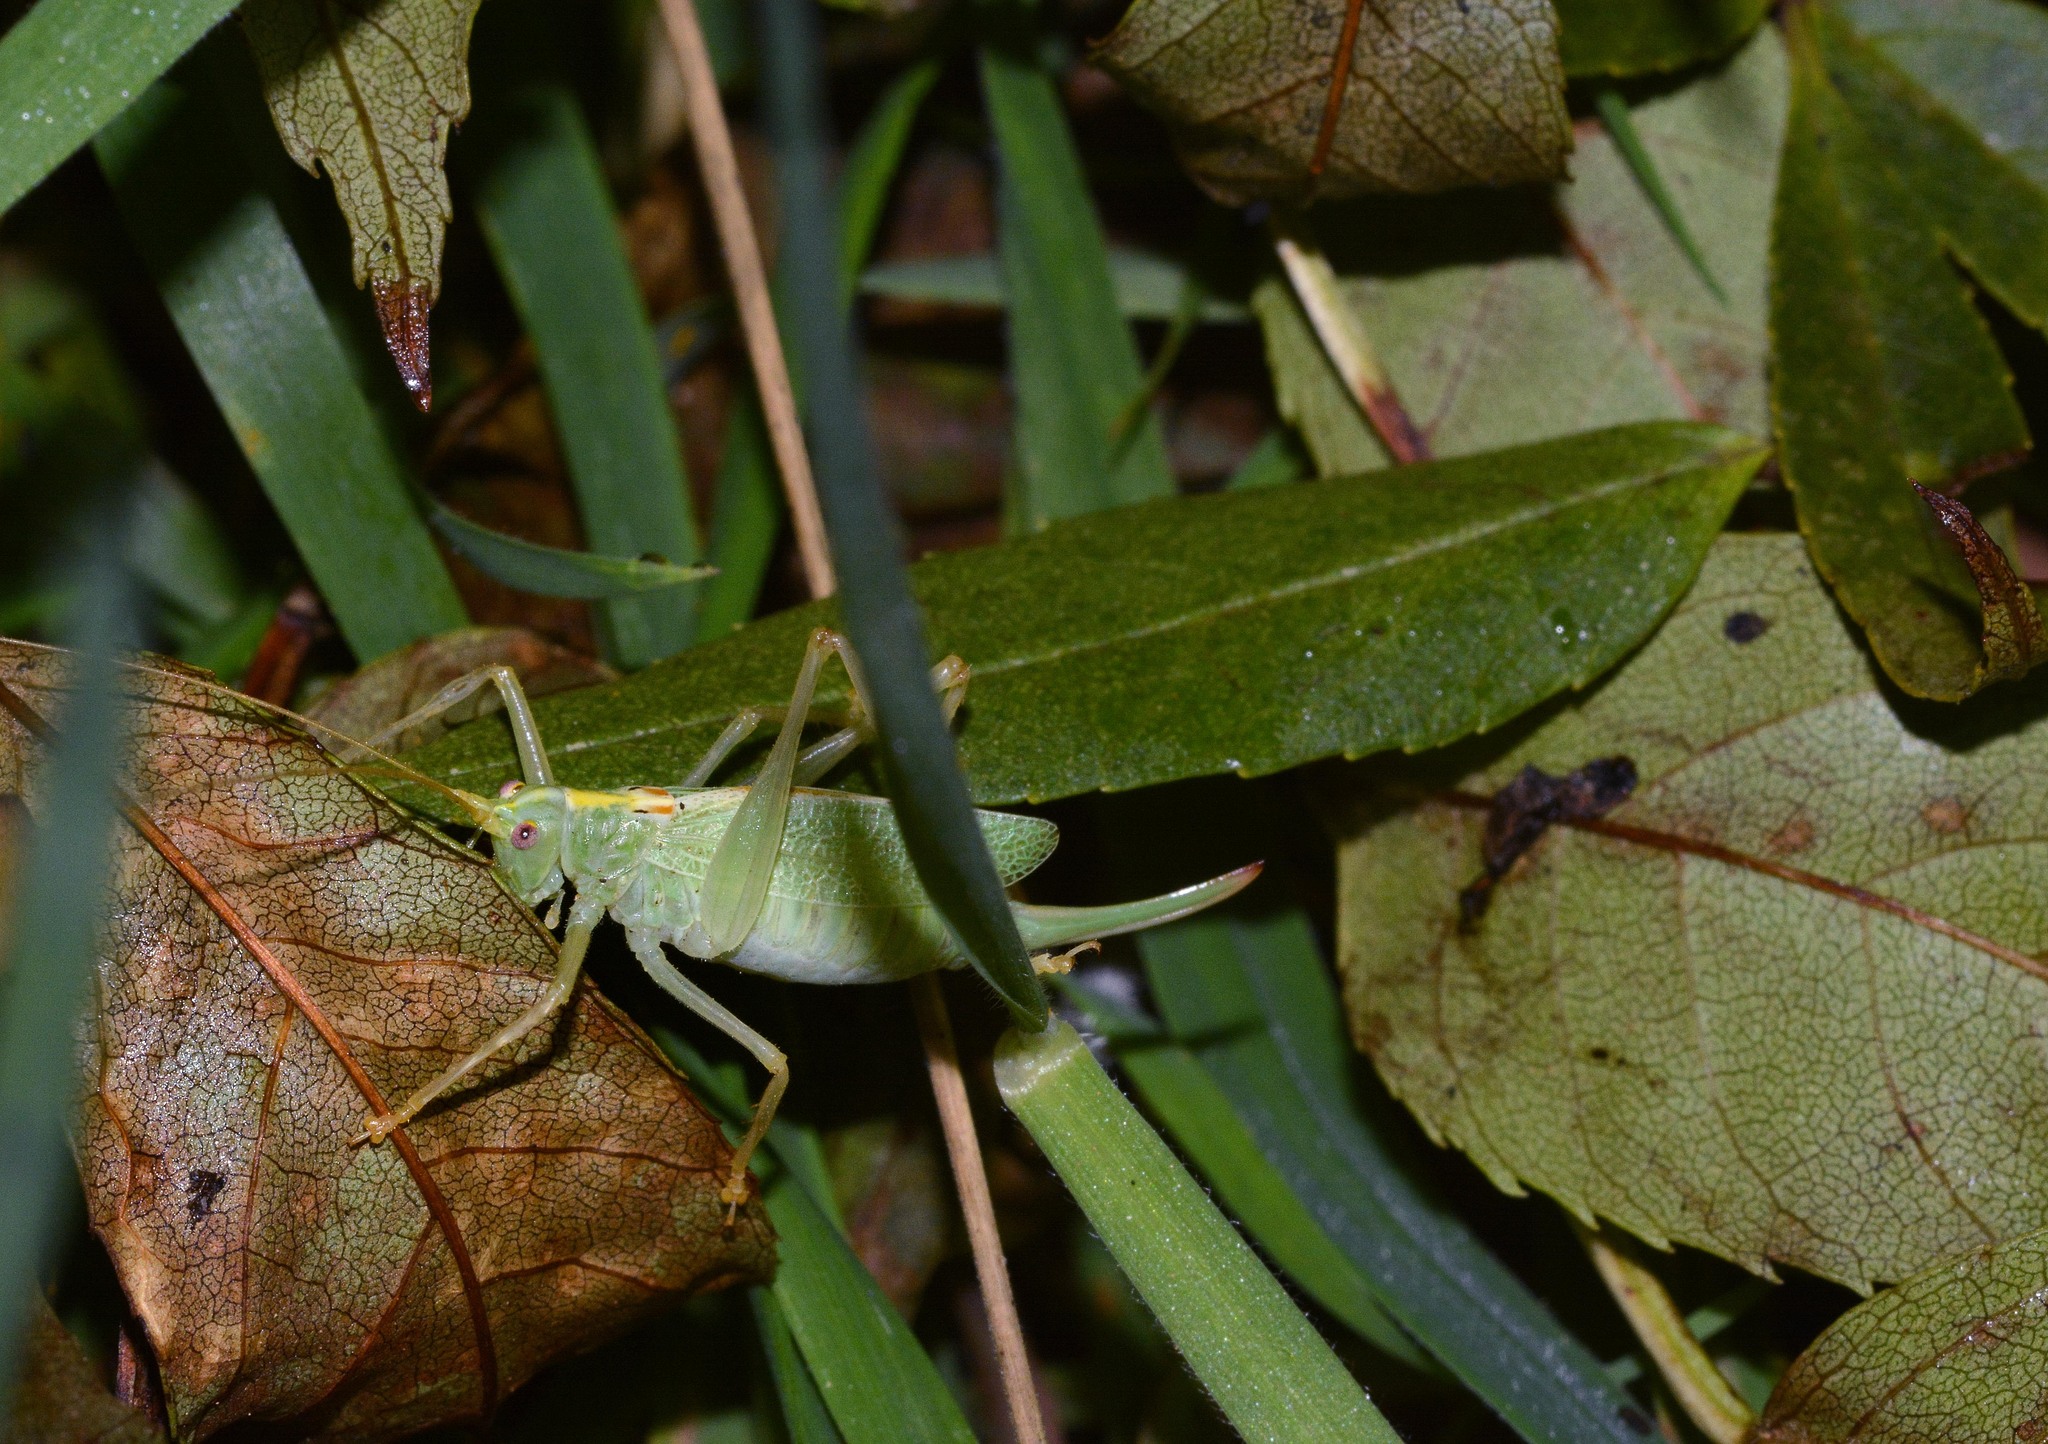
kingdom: Animalia
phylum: Arthropoda
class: Insecta
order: Orthoptera
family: Tettigoniidae
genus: Meconema
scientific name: Meconema thalassinum
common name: Oak bush-cricket
